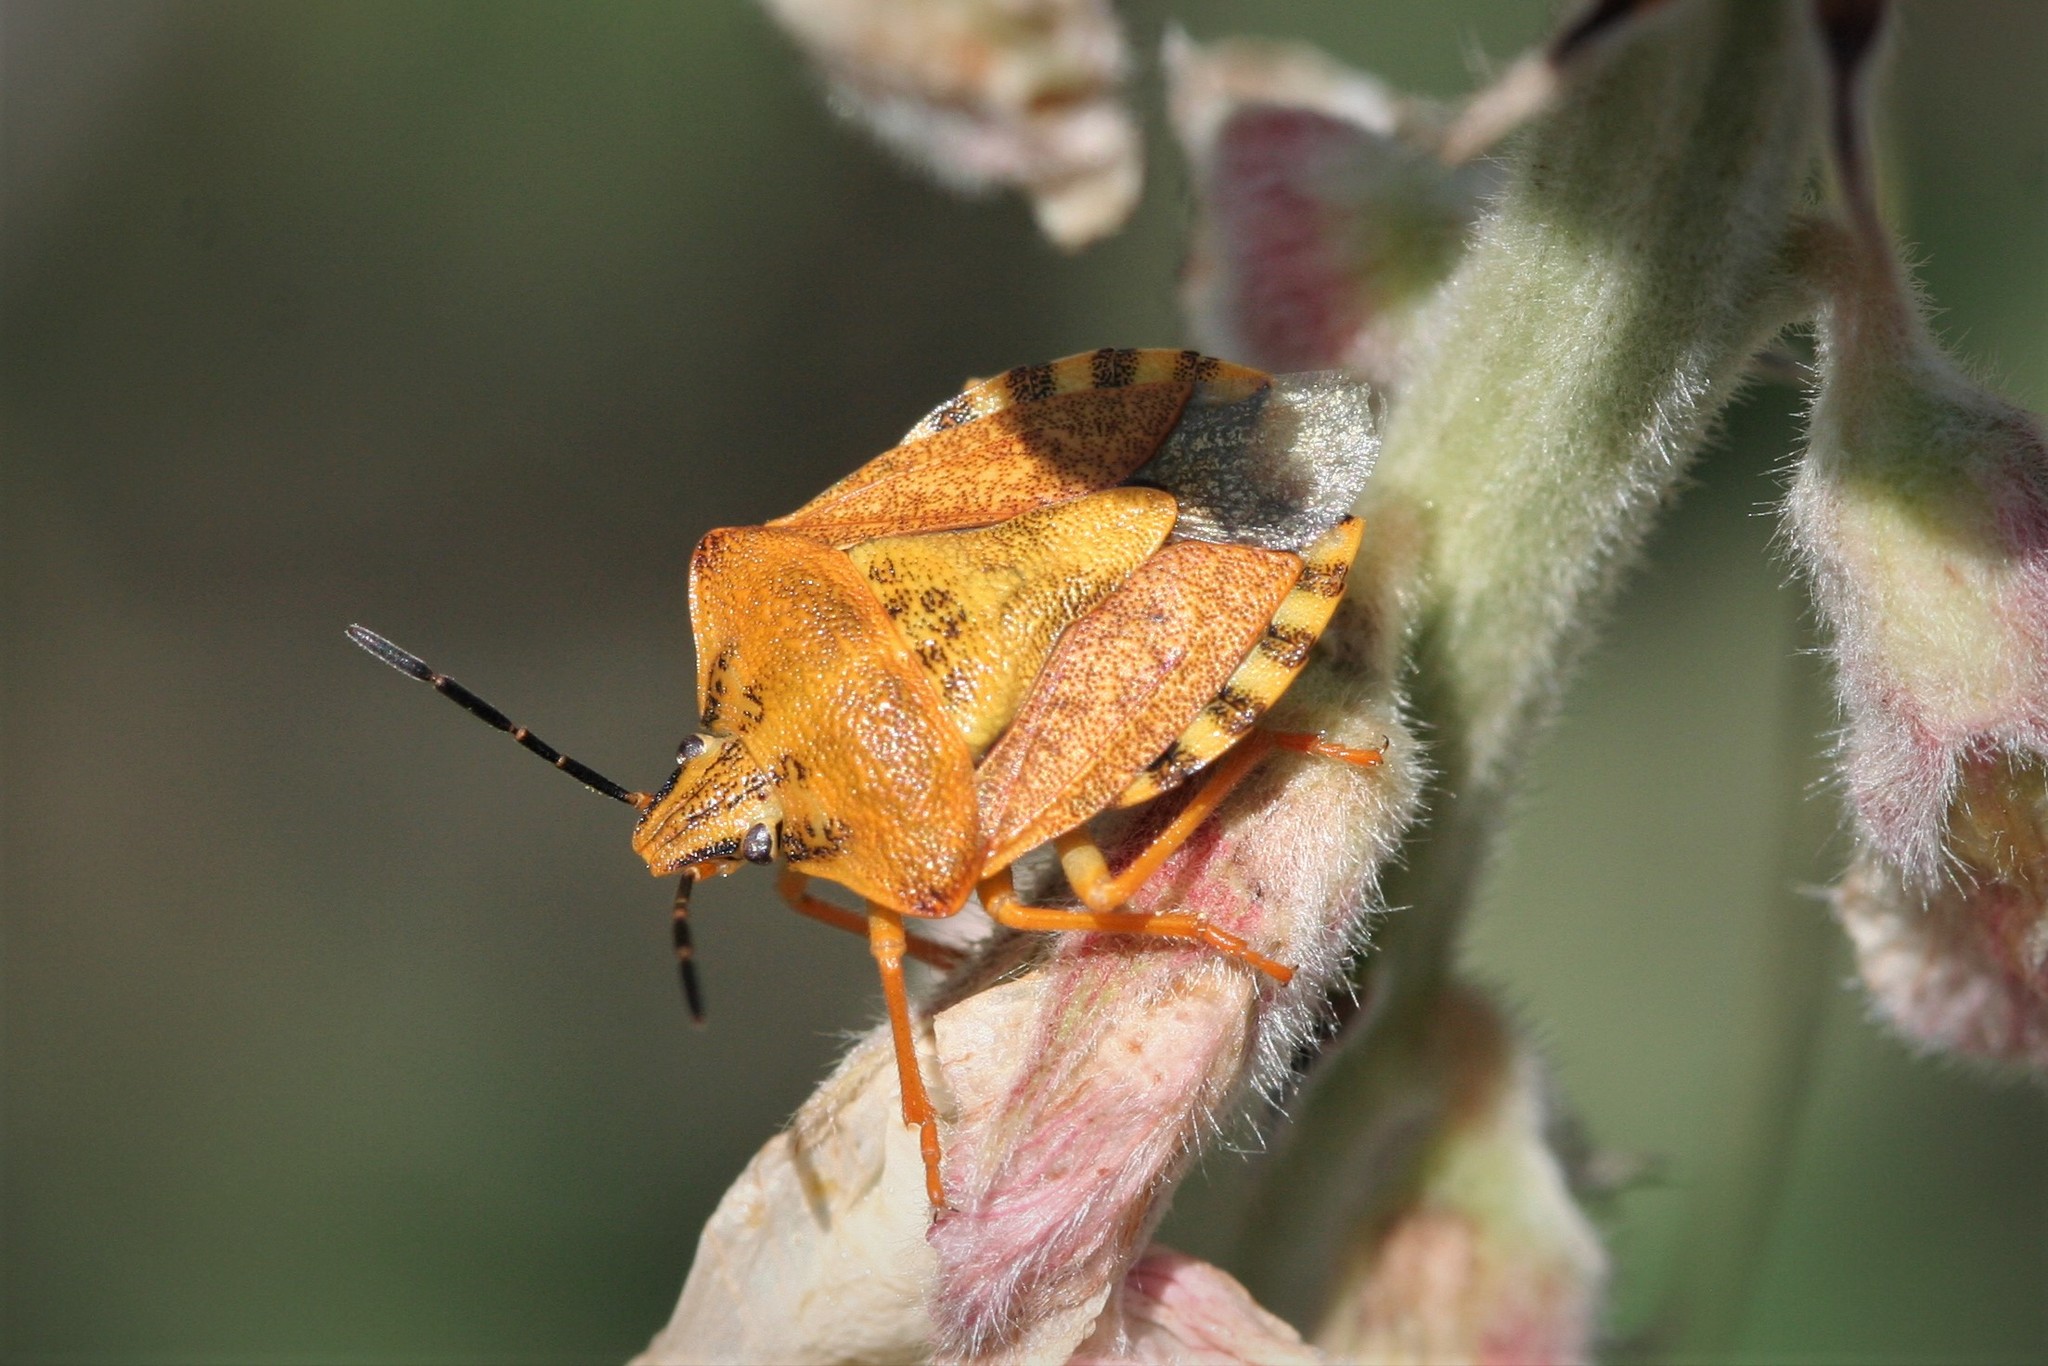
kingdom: Animalia
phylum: Arthropoda
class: Insecta
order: Hemiptera
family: Pentatomidae
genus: Carpocoris
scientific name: Carpocoris purpureipennis
